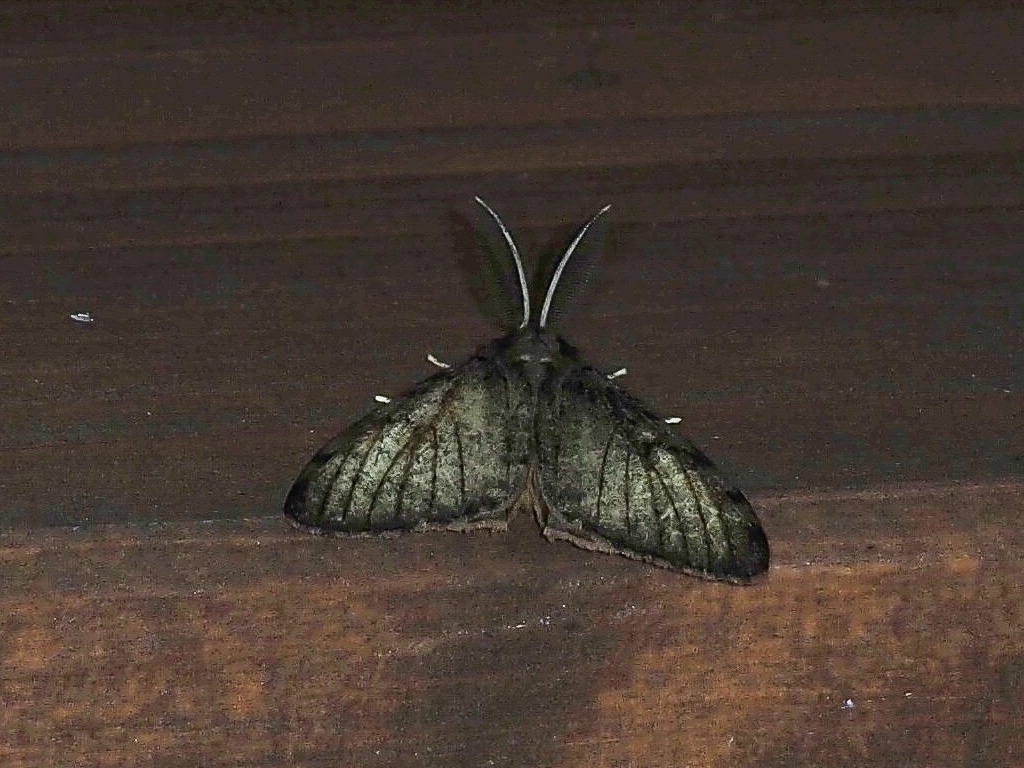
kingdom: Animalia
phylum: Arthropoda
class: Insecta
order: Lepidoptera
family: Erebidae
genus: Lymantria
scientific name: Lymantria dispar
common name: Gypsy moth
